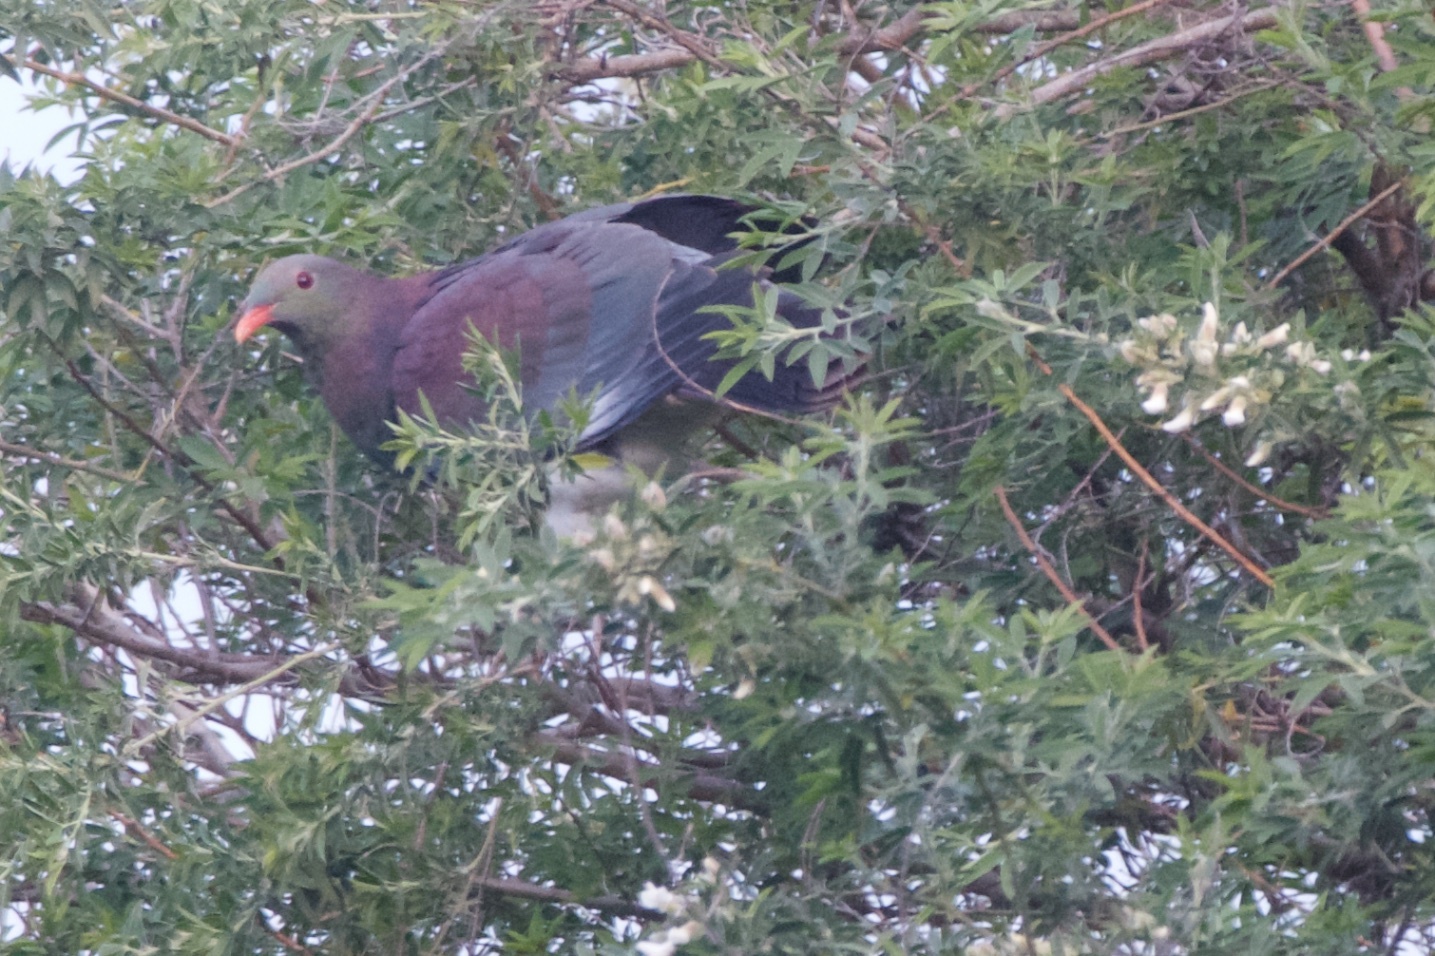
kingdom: Animalia
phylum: Chordata
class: Aves
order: Columbiformes
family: Columbidae
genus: Hemiphaga
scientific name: Hemiphaga novaeseelandiae
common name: New zealand pigeon
